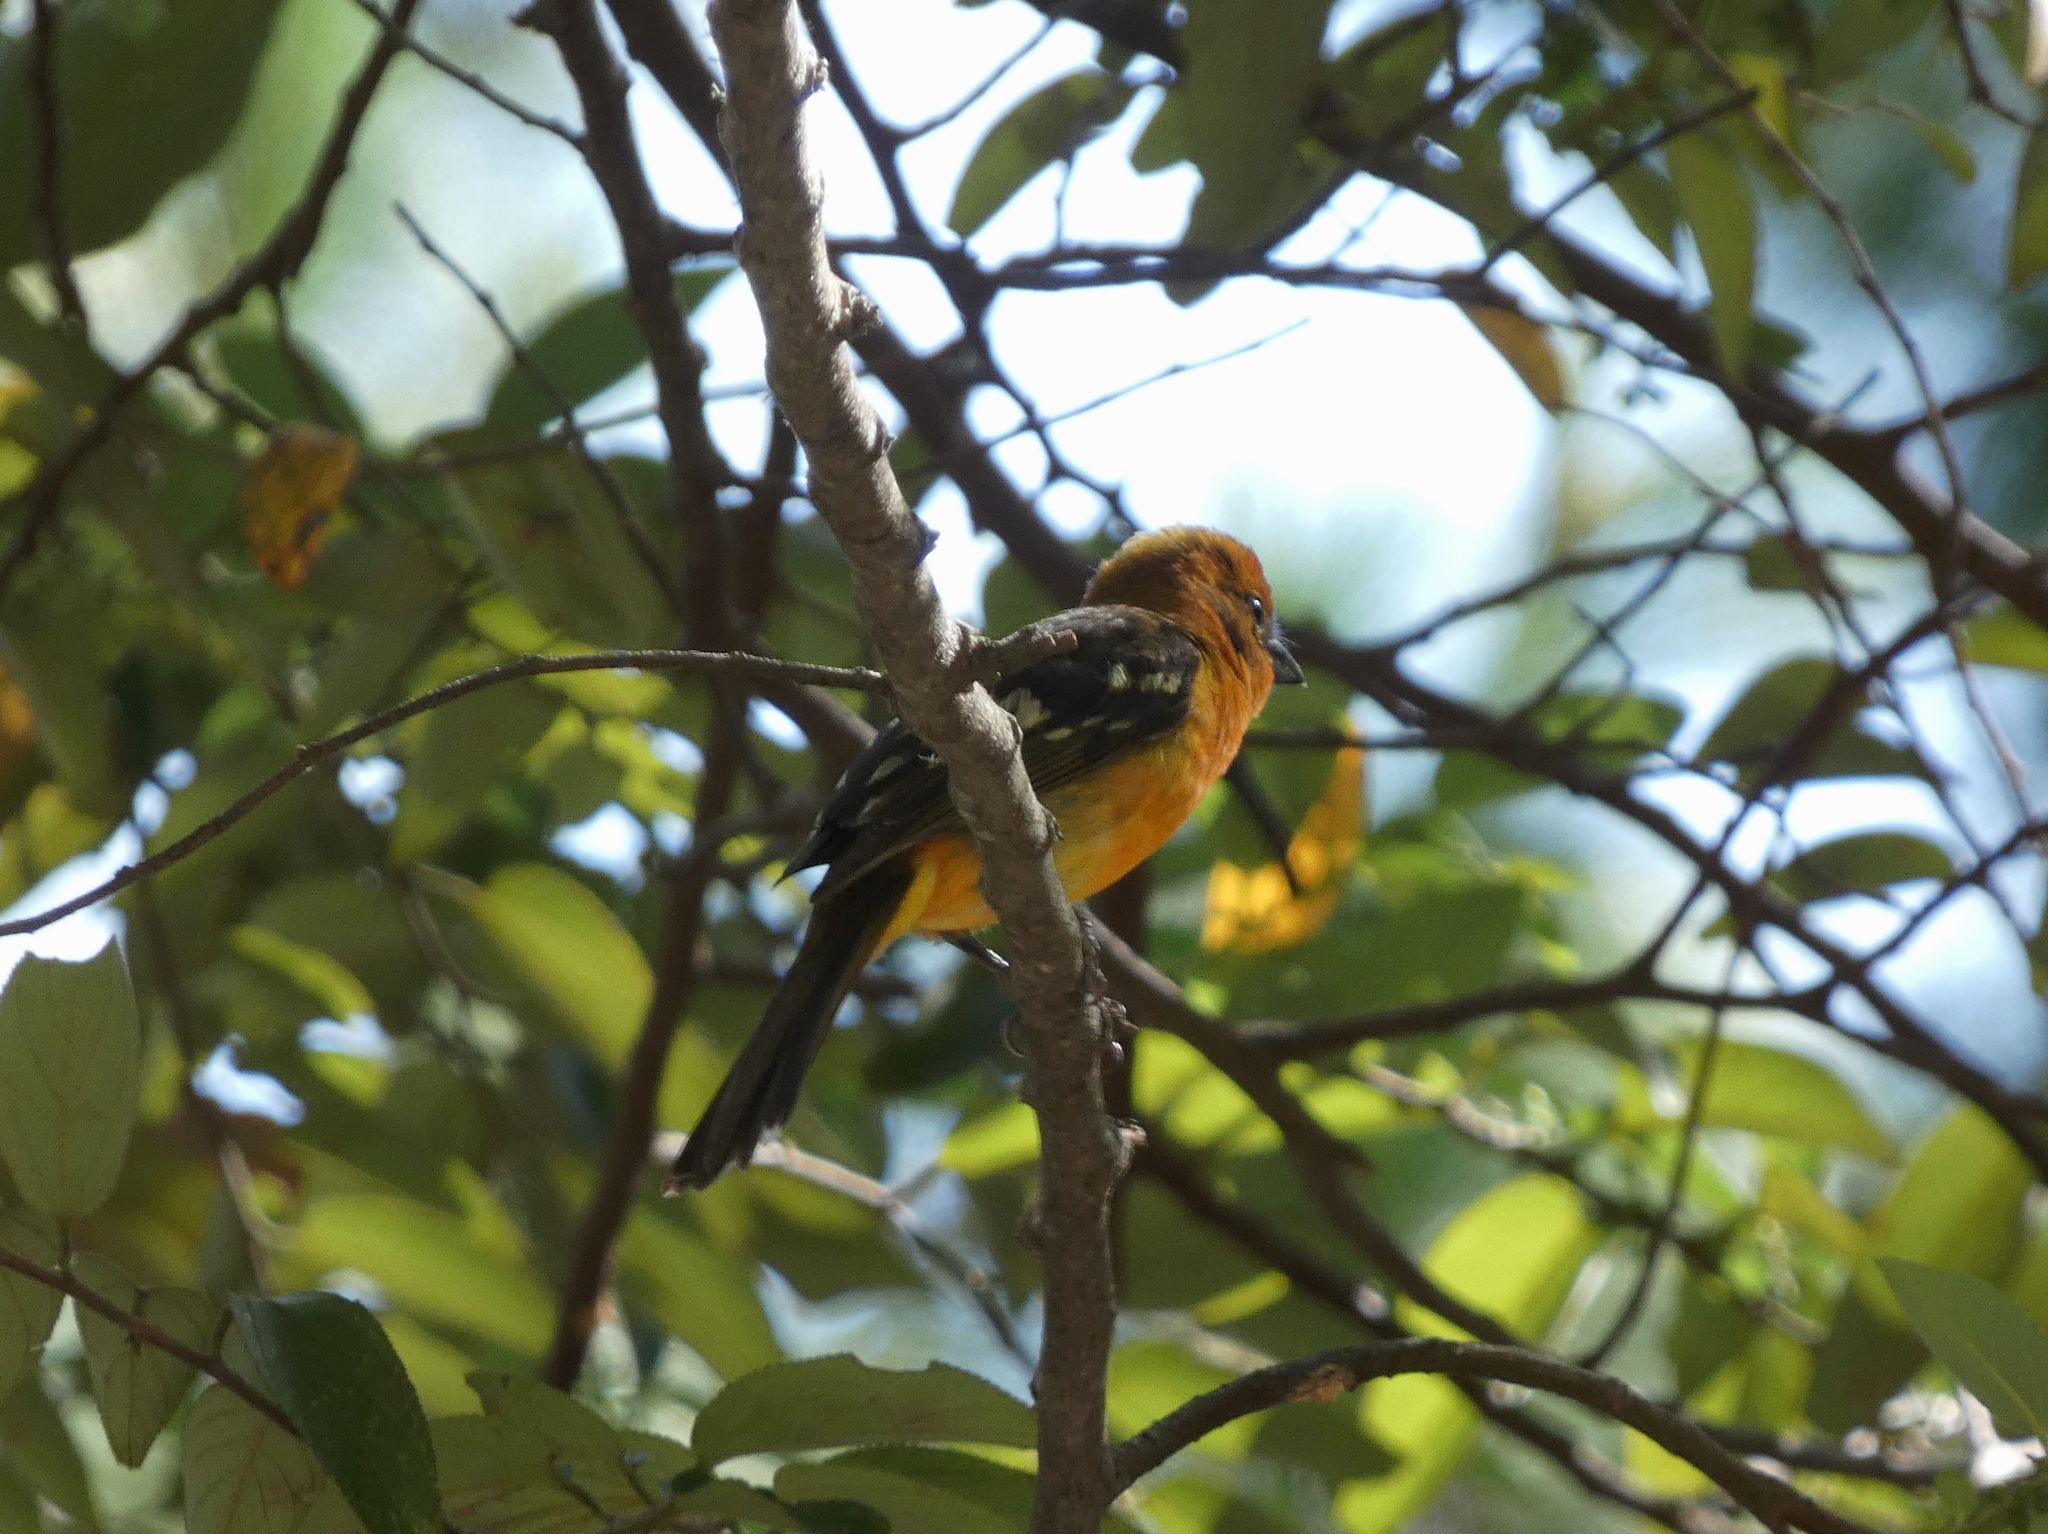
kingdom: Animalia
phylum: Chordata
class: Aves
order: Passeriformes
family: Cardinalidae
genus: Piranga
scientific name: Piranga bidentata
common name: Flame-colored tanager
